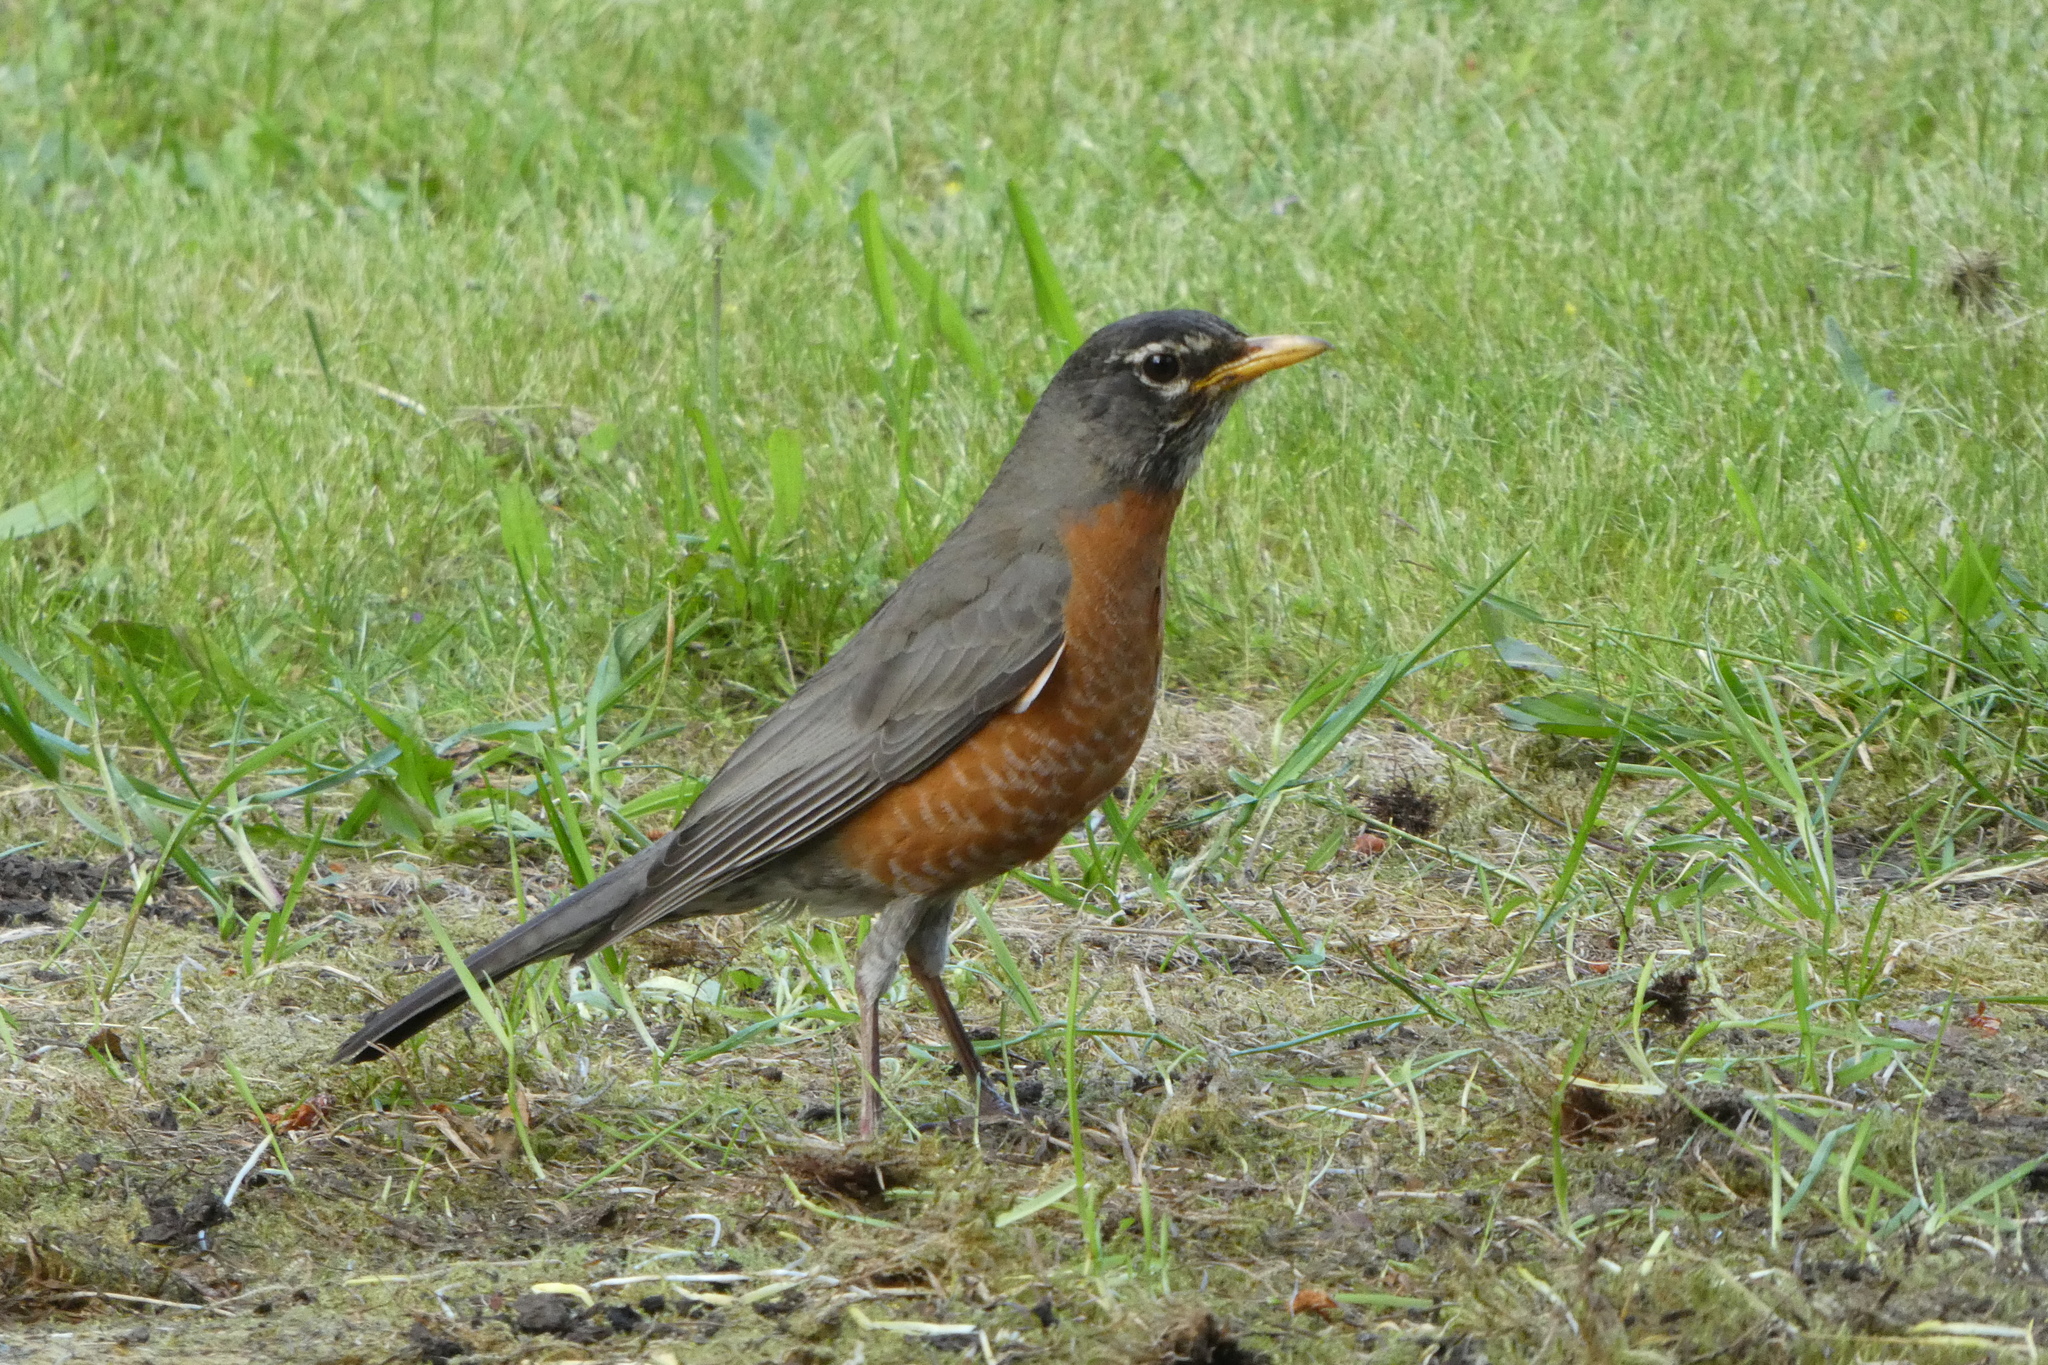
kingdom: Animalia
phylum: Chordata
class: Aves
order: Passeriformes
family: Turdidae
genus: Turdus
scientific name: Turdus migratorius
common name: American robin
